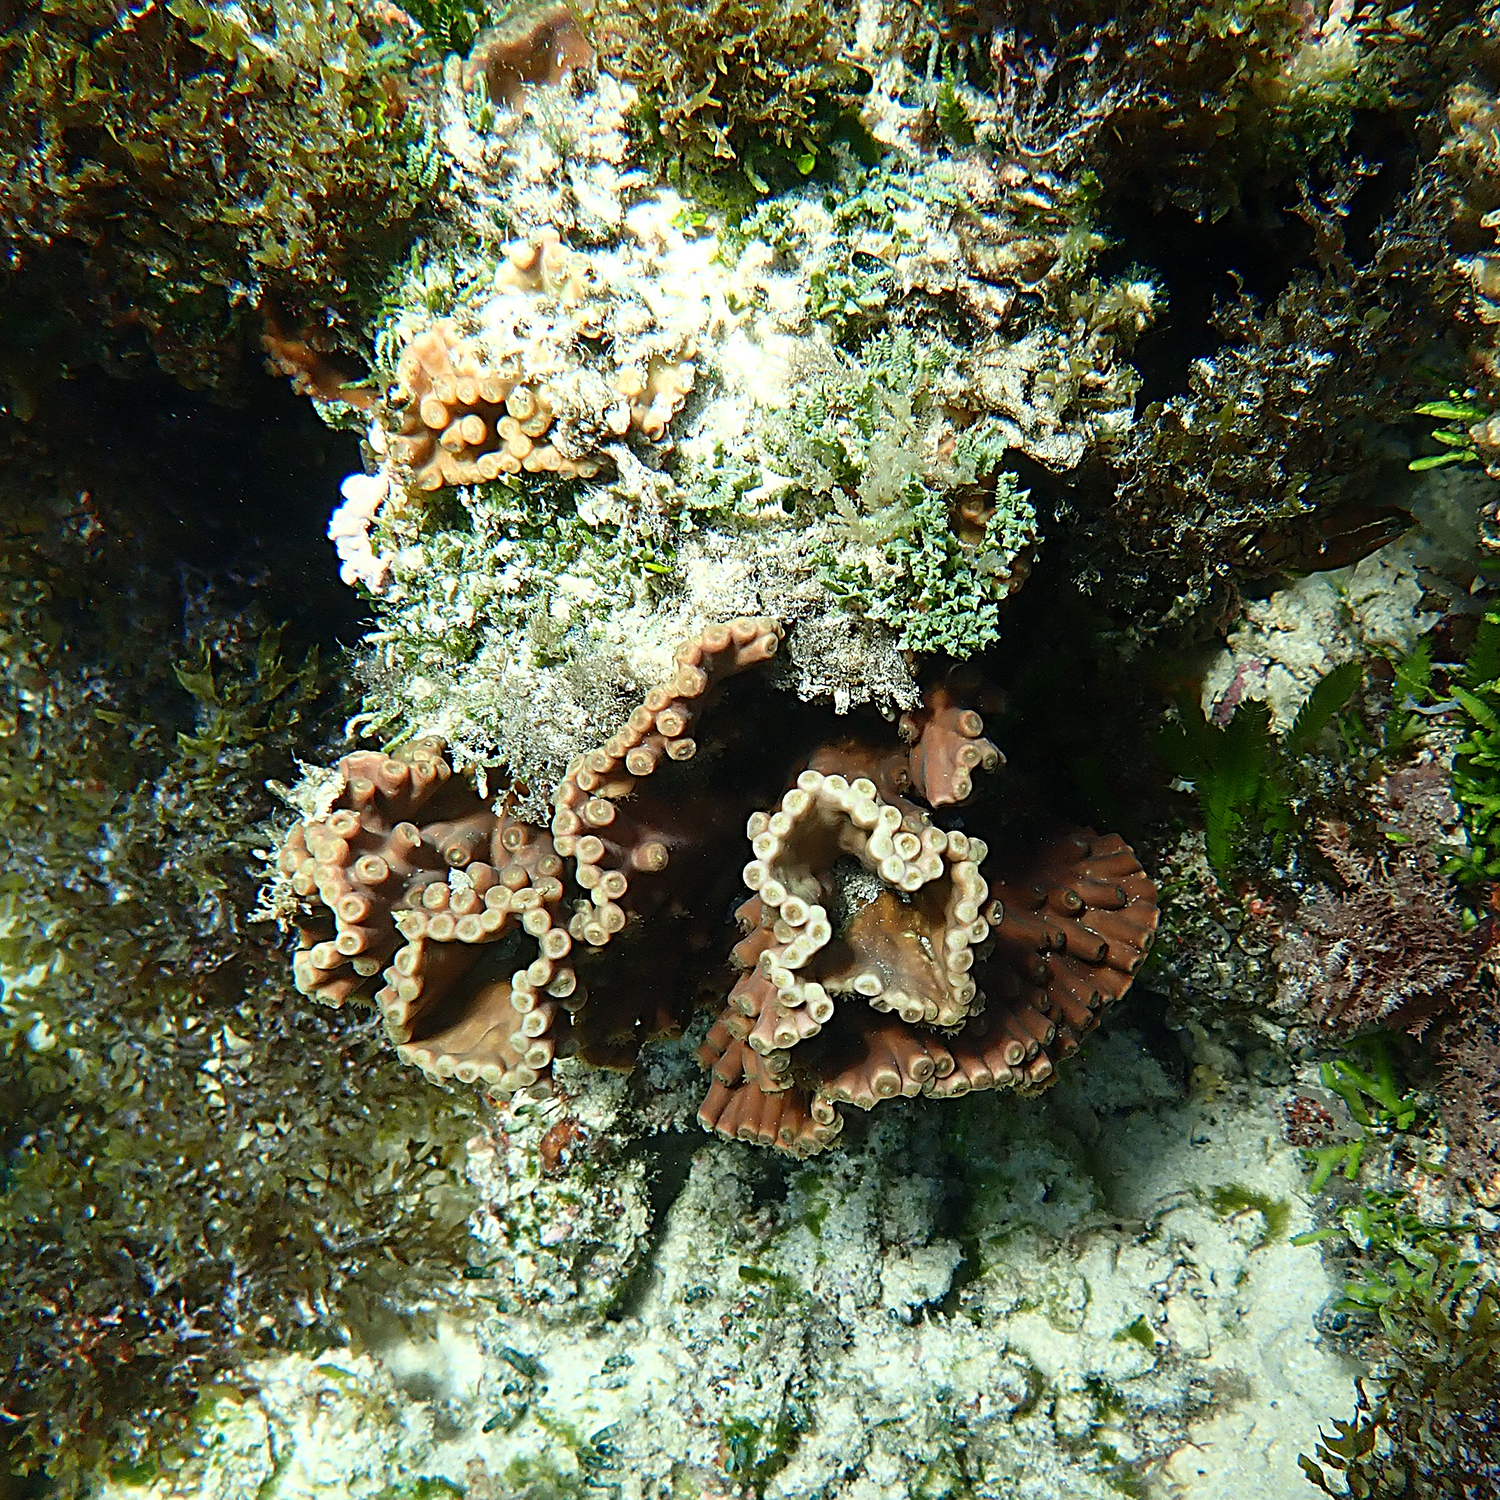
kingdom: Animalia
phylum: Cnidaria
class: Anthozoa
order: Scleractinia
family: Dendrophylliidae
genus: Turbinaria
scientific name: Turbinaria heronensis
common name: Disc coral
